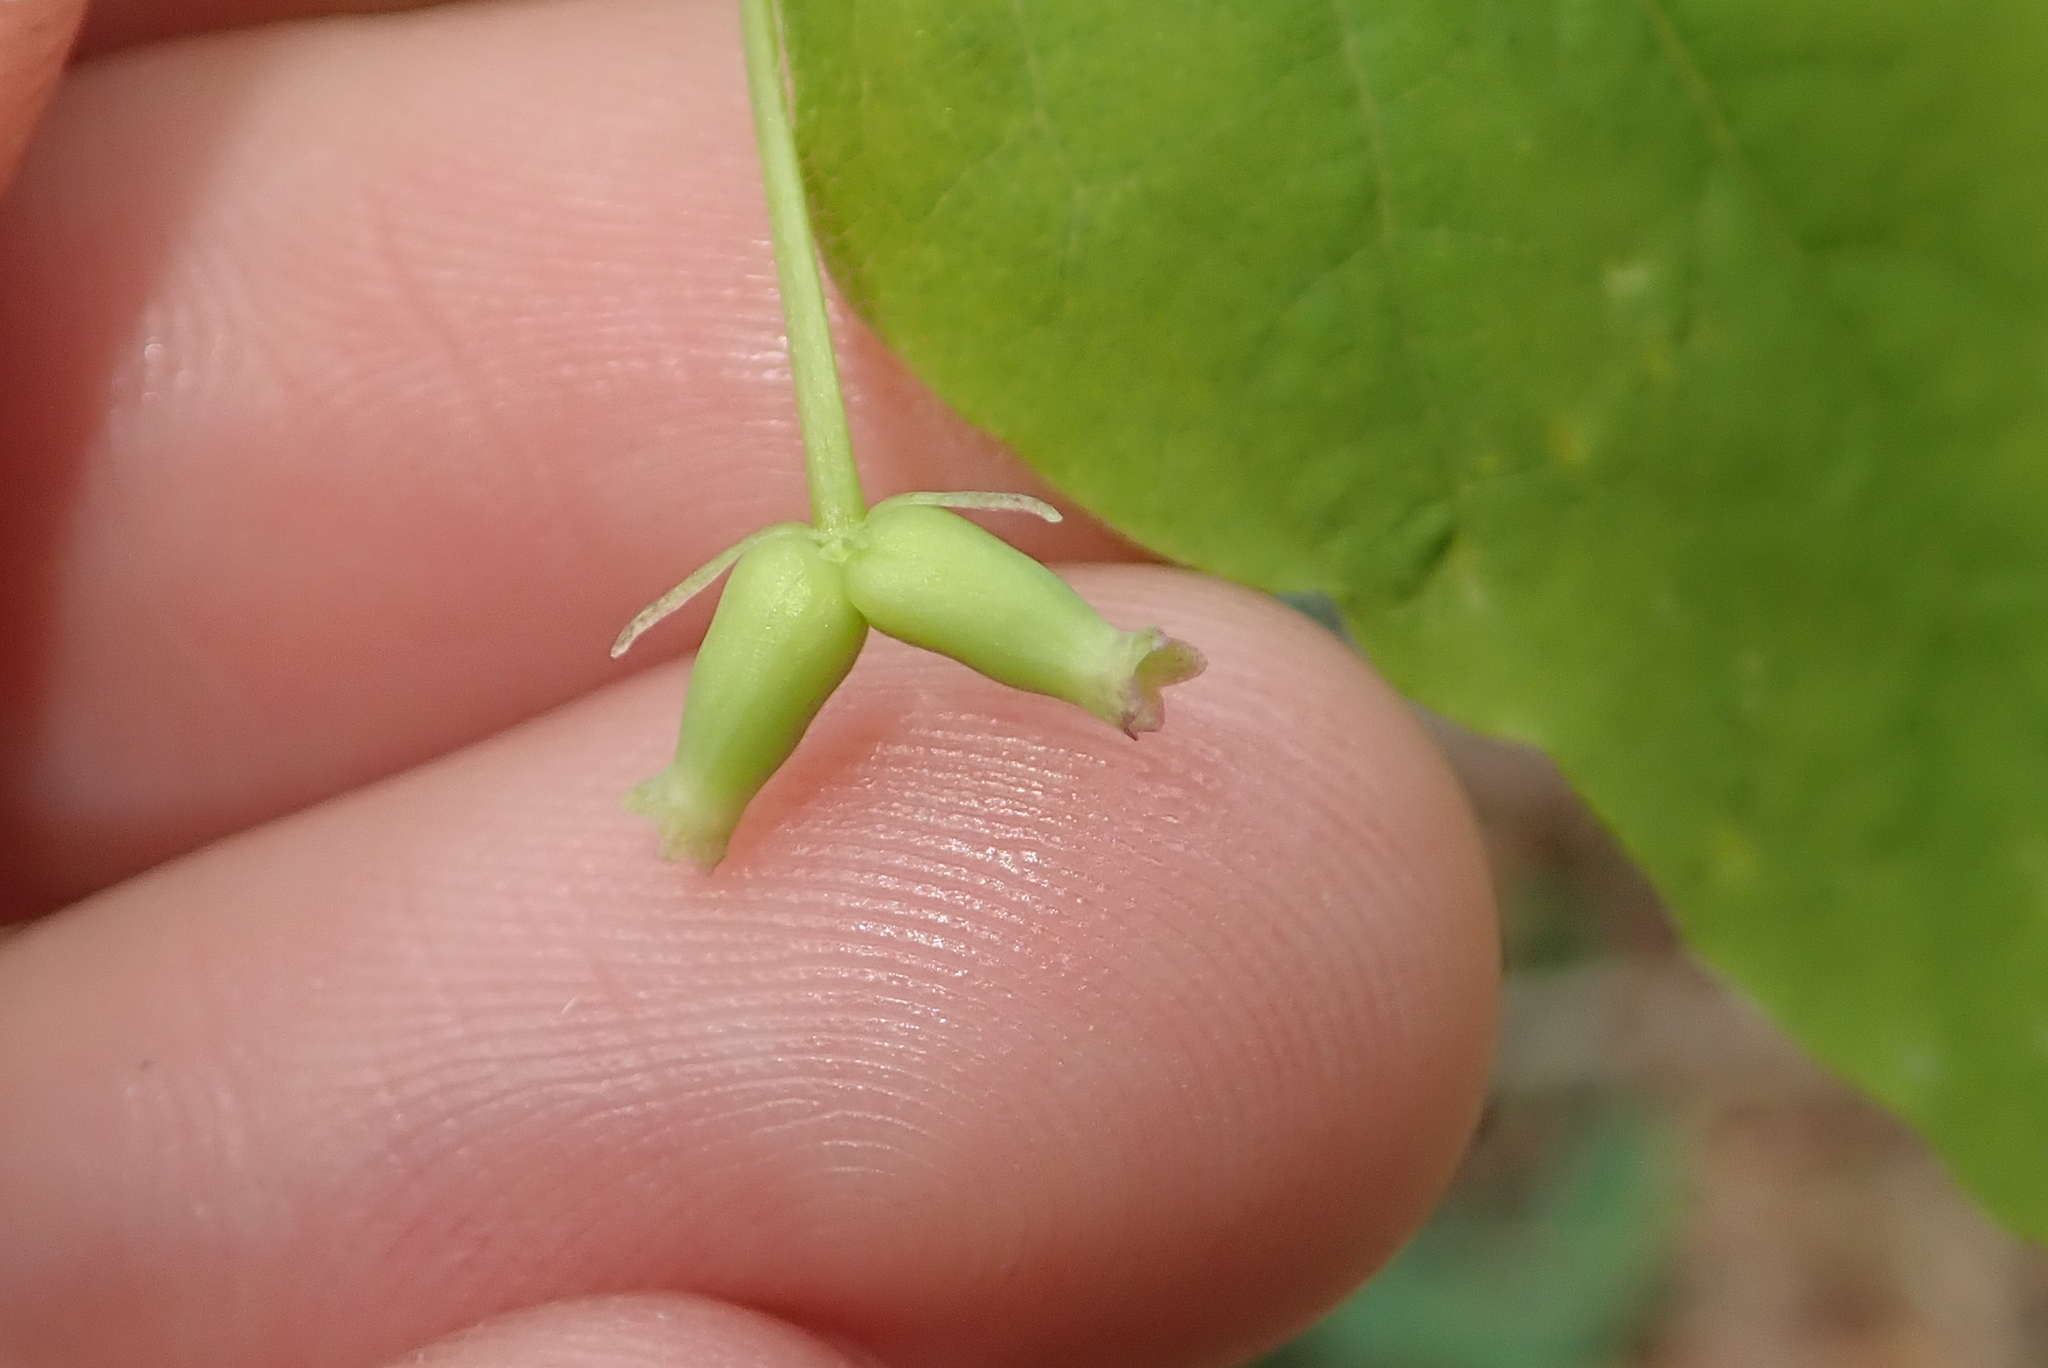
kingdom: Plantae
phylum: Tracheophyta
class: Magnoliopsida
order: Dipsacales
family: Caprifoliaceae
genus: Lonicera
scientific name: Lonicera canadensis
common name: American fly-honeysuckle
